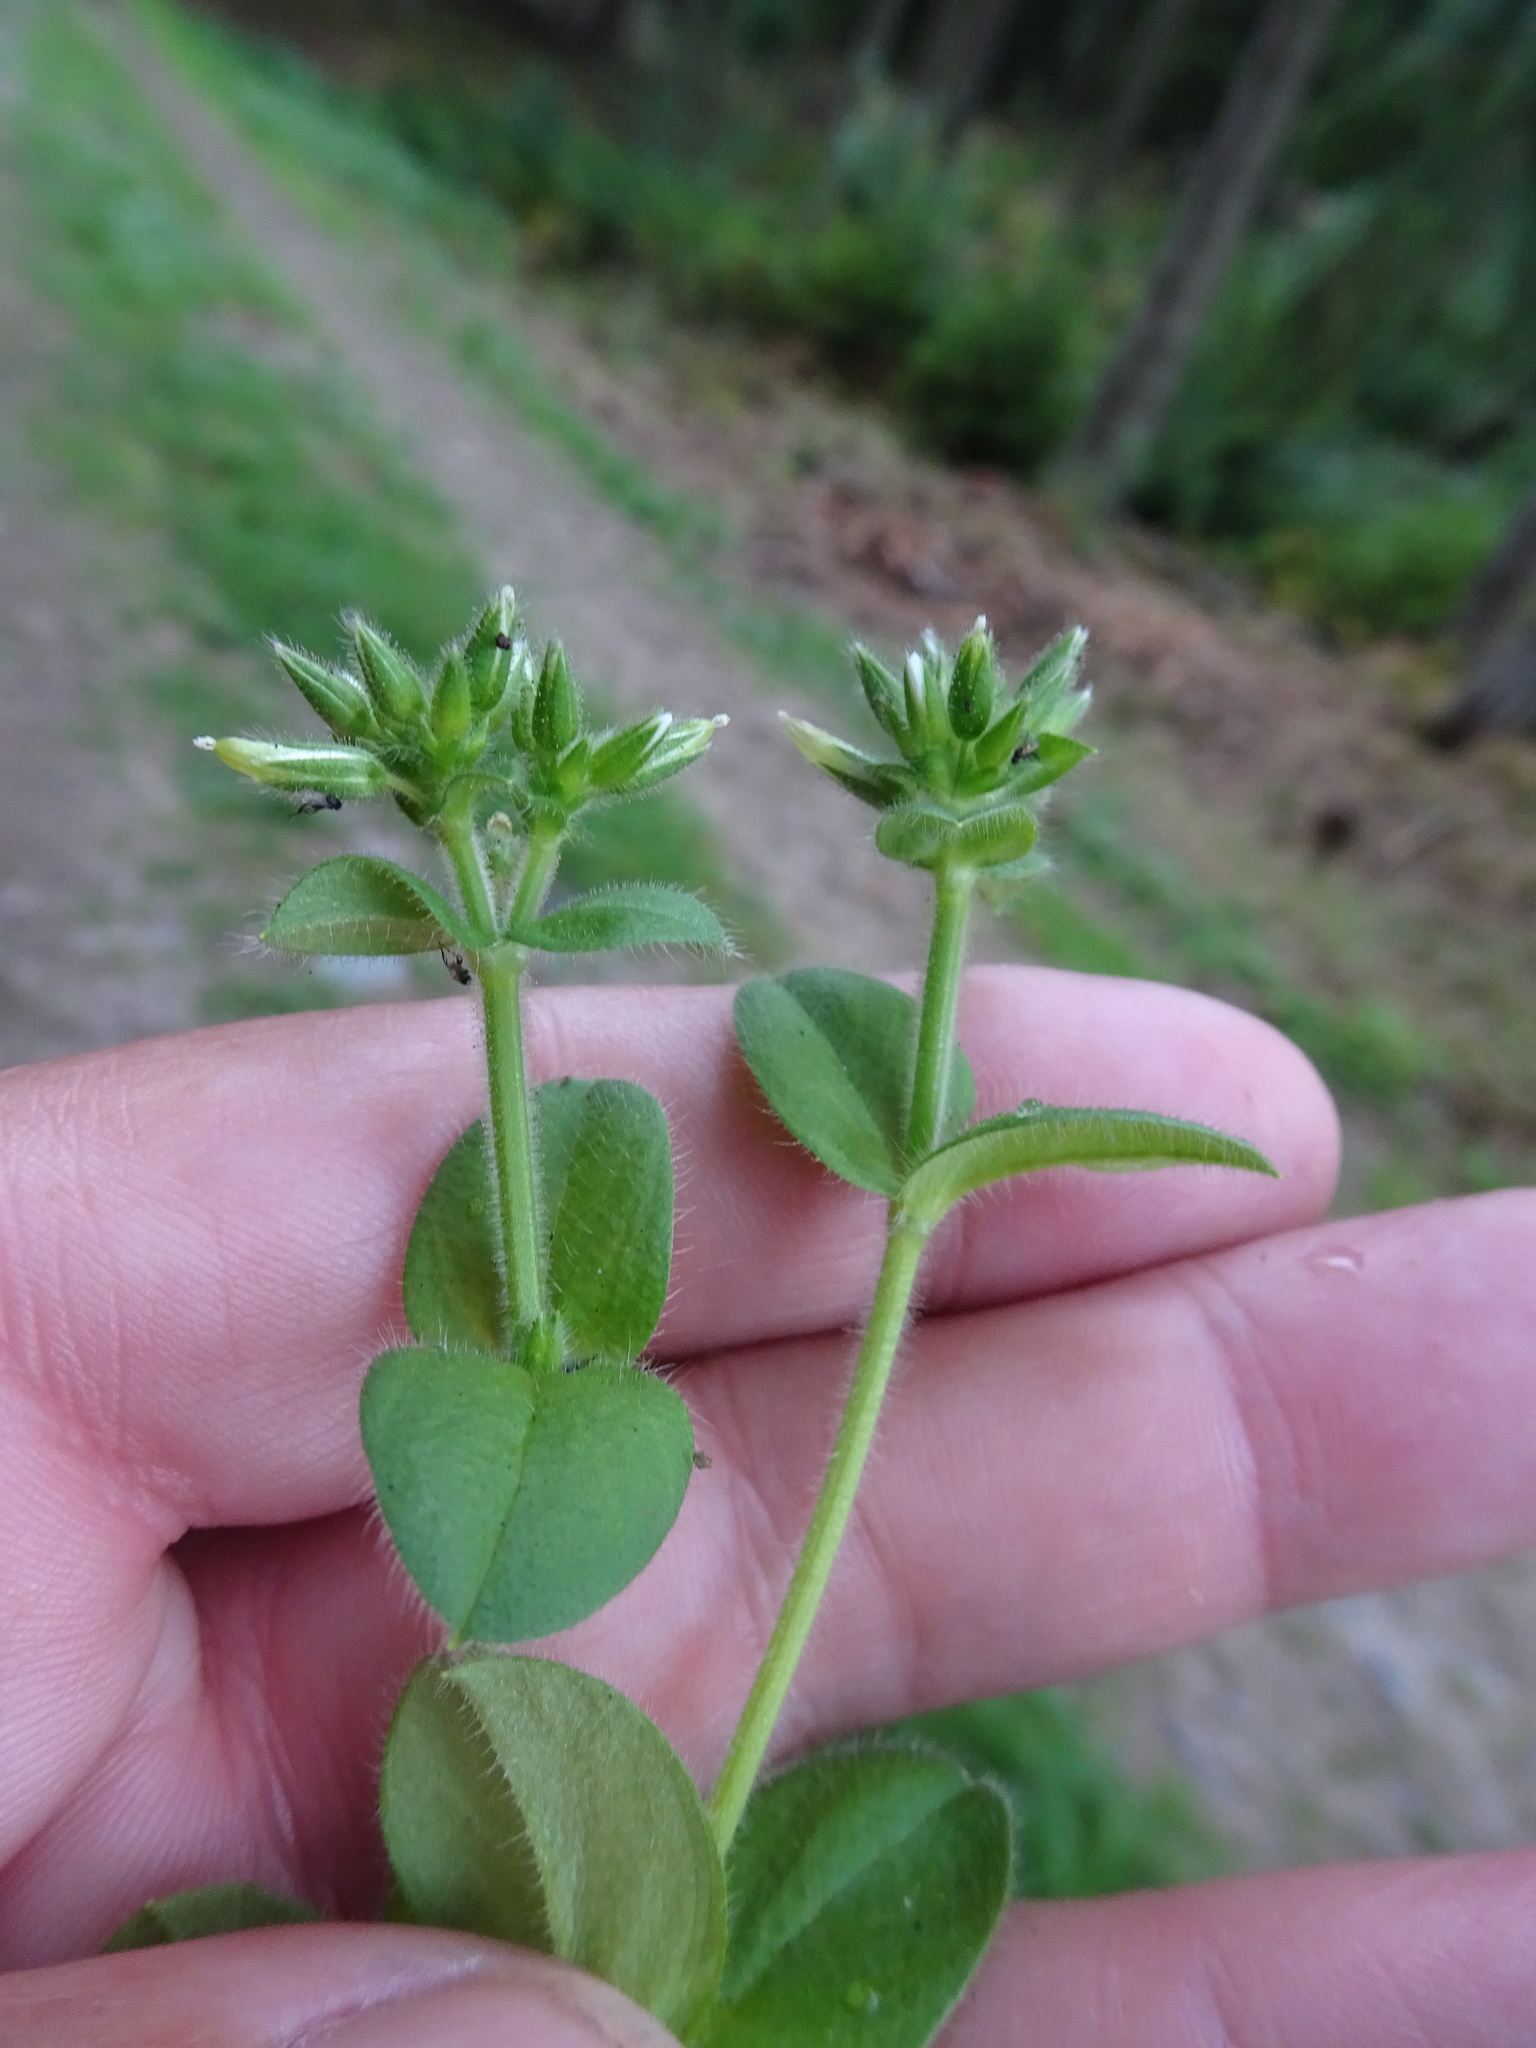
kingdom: Plantae
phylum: Tracheophyta
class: Magnoliopsida
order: Caryophyllales
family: Caryophyllaceae
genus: Cerastium
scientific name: Cerastium glomeratum
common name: Sticky chickweed
